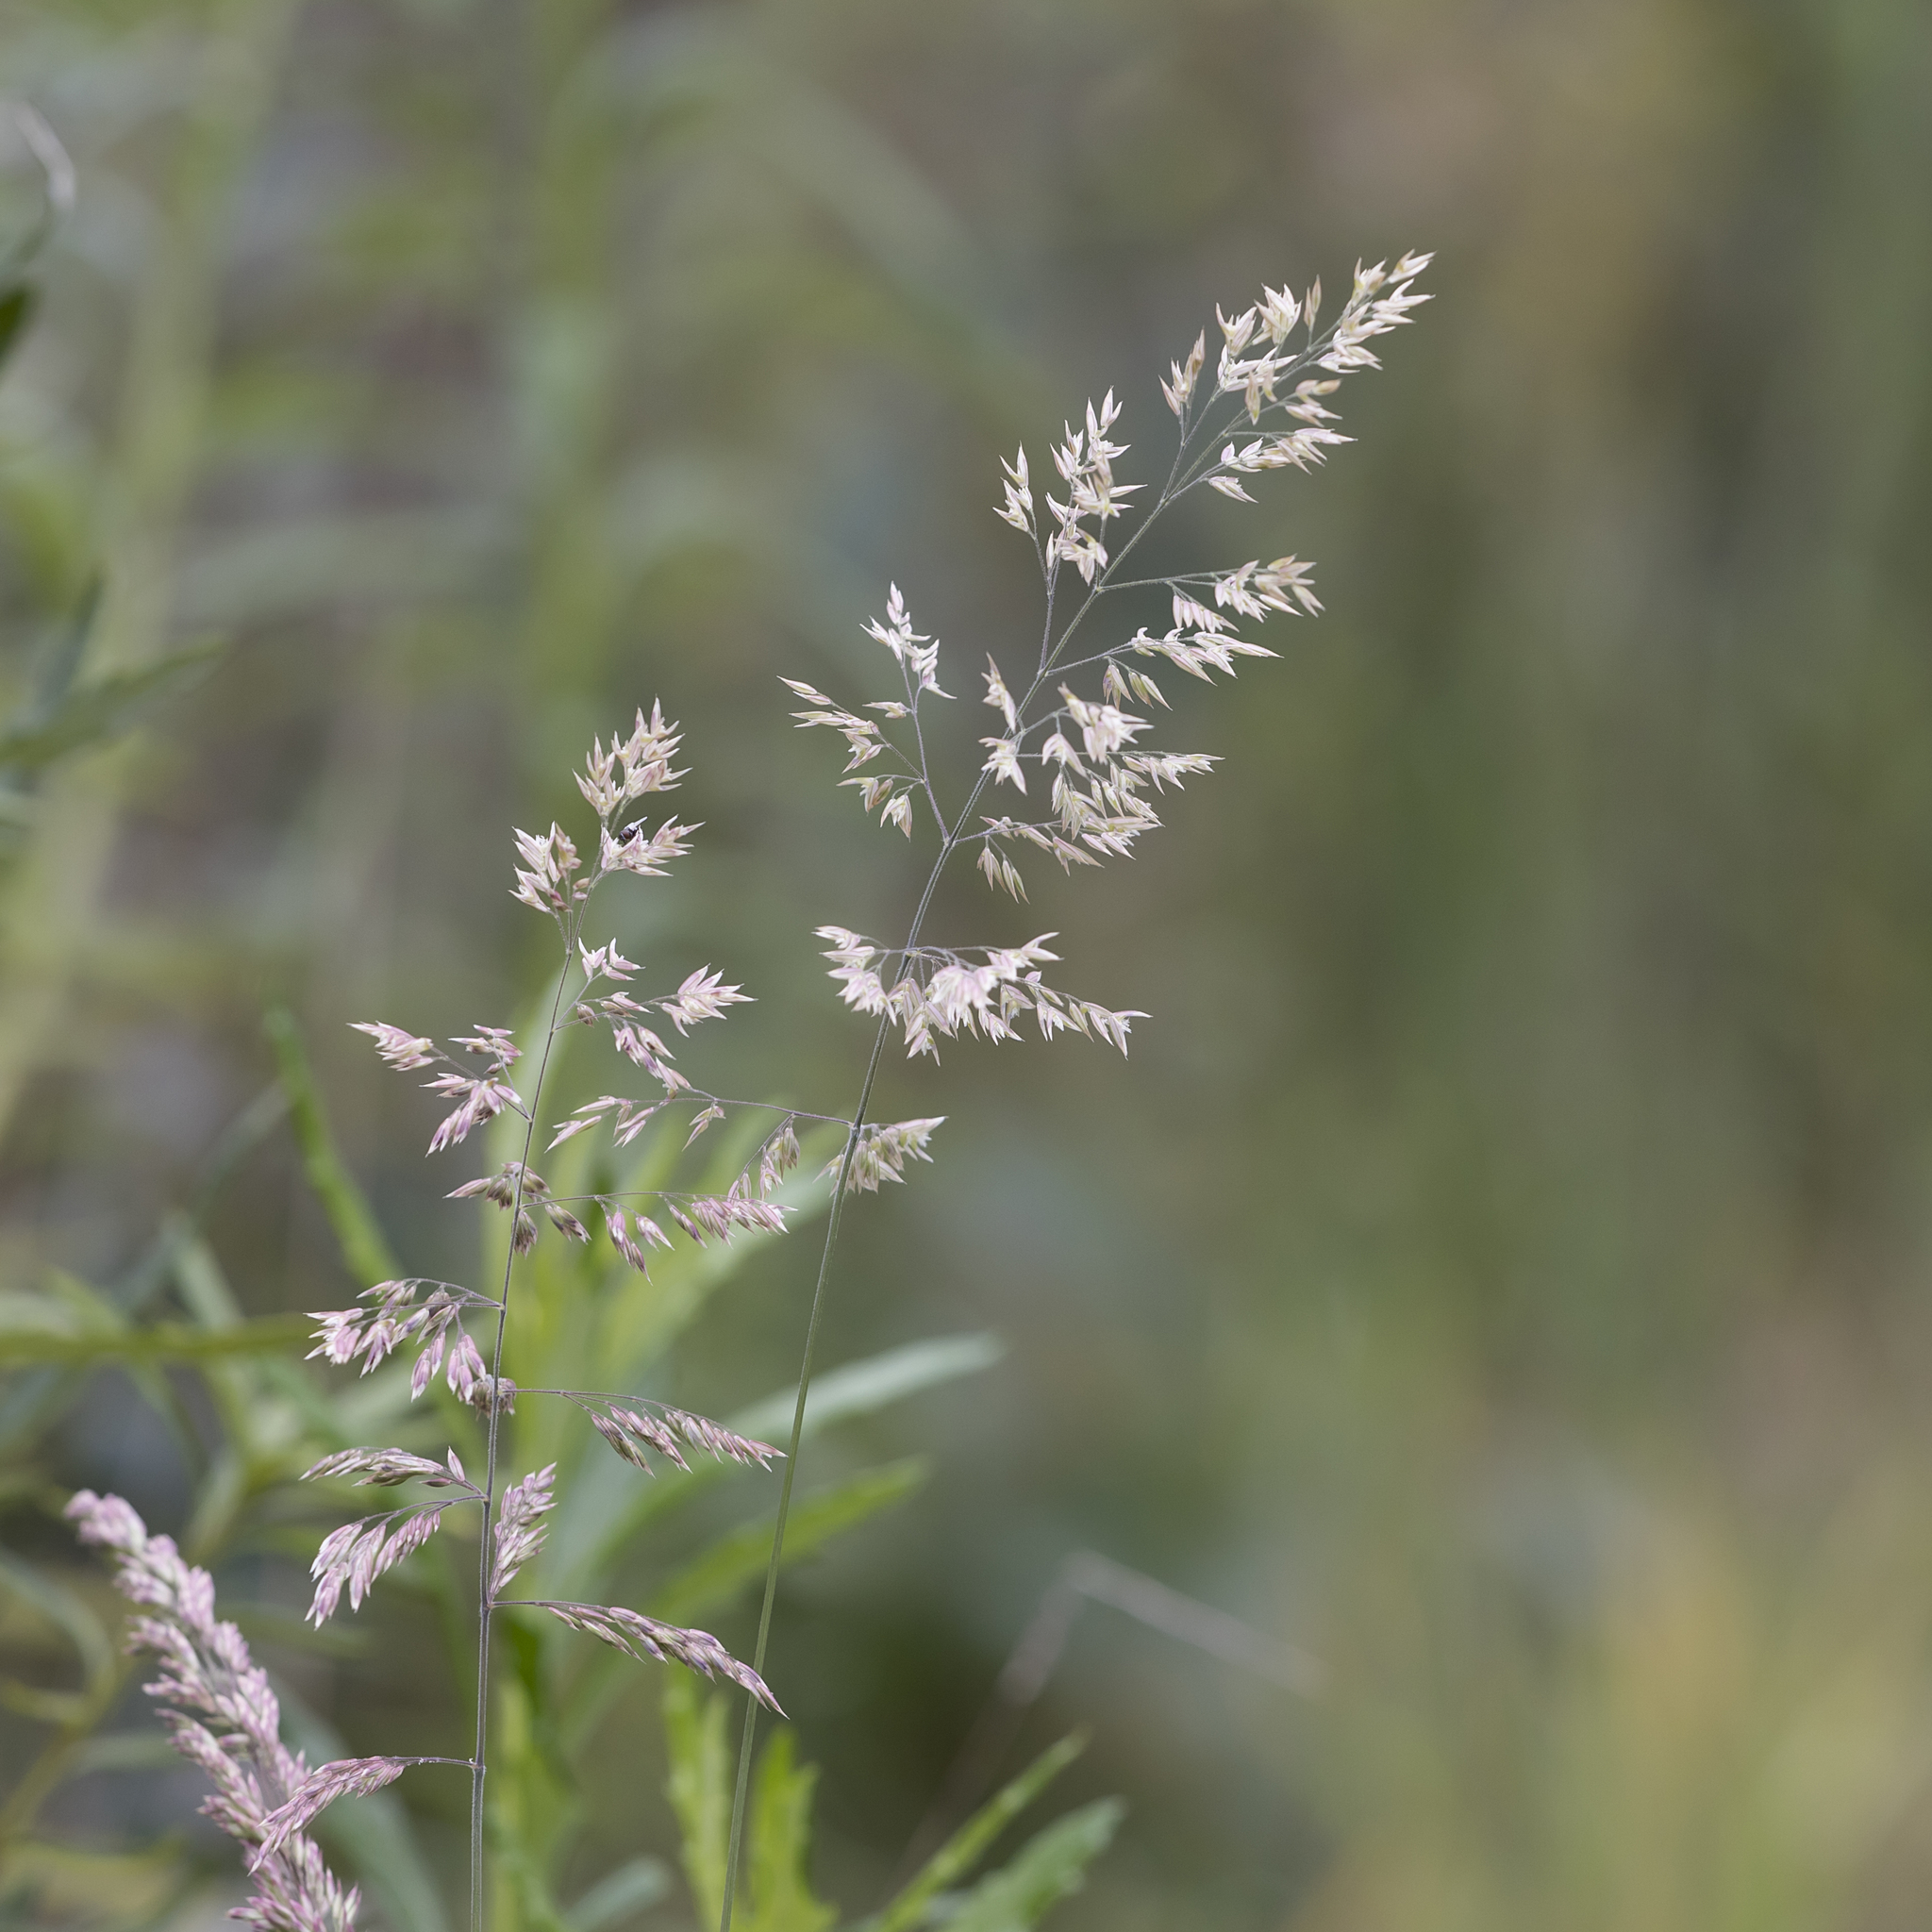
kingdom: Plantae
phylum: Tracheophyta
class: Liliopsida
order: Poales
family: Poaceae
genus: Holcus
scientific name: Holcus lanatus
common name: Yorkshire-fog
